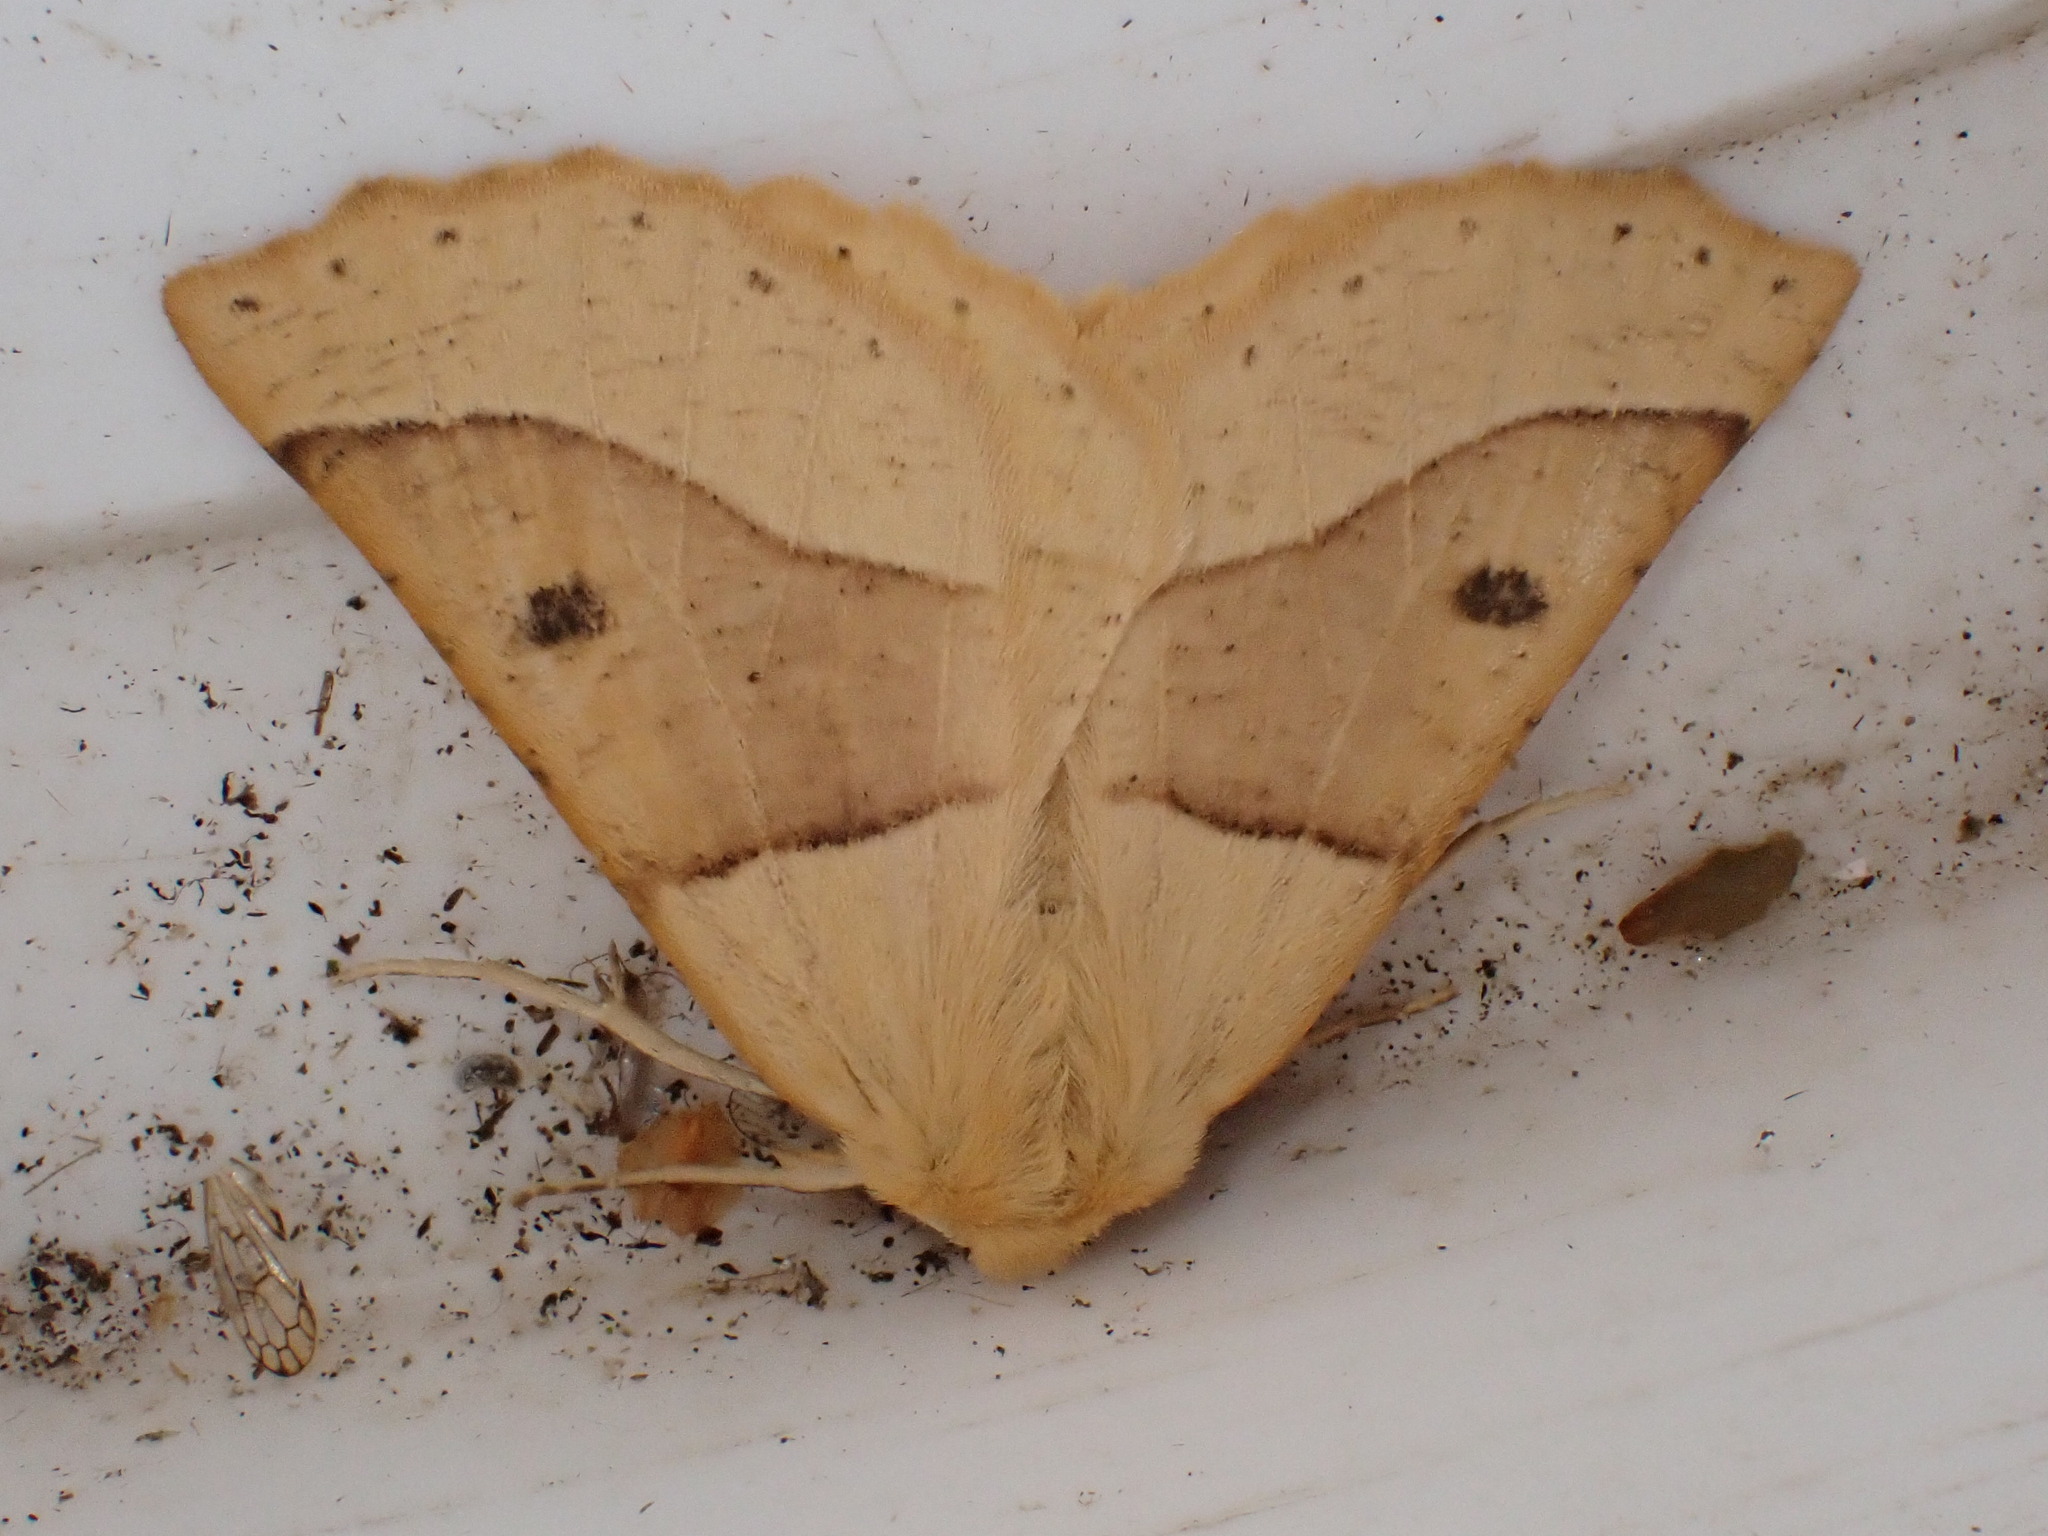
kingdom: Animalia
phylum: Arthropoda
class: Insecta
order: Lepidoptera
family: Geometridae
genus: Crocallis
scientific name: Crocallis elinguaria
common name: Scalloped oak
